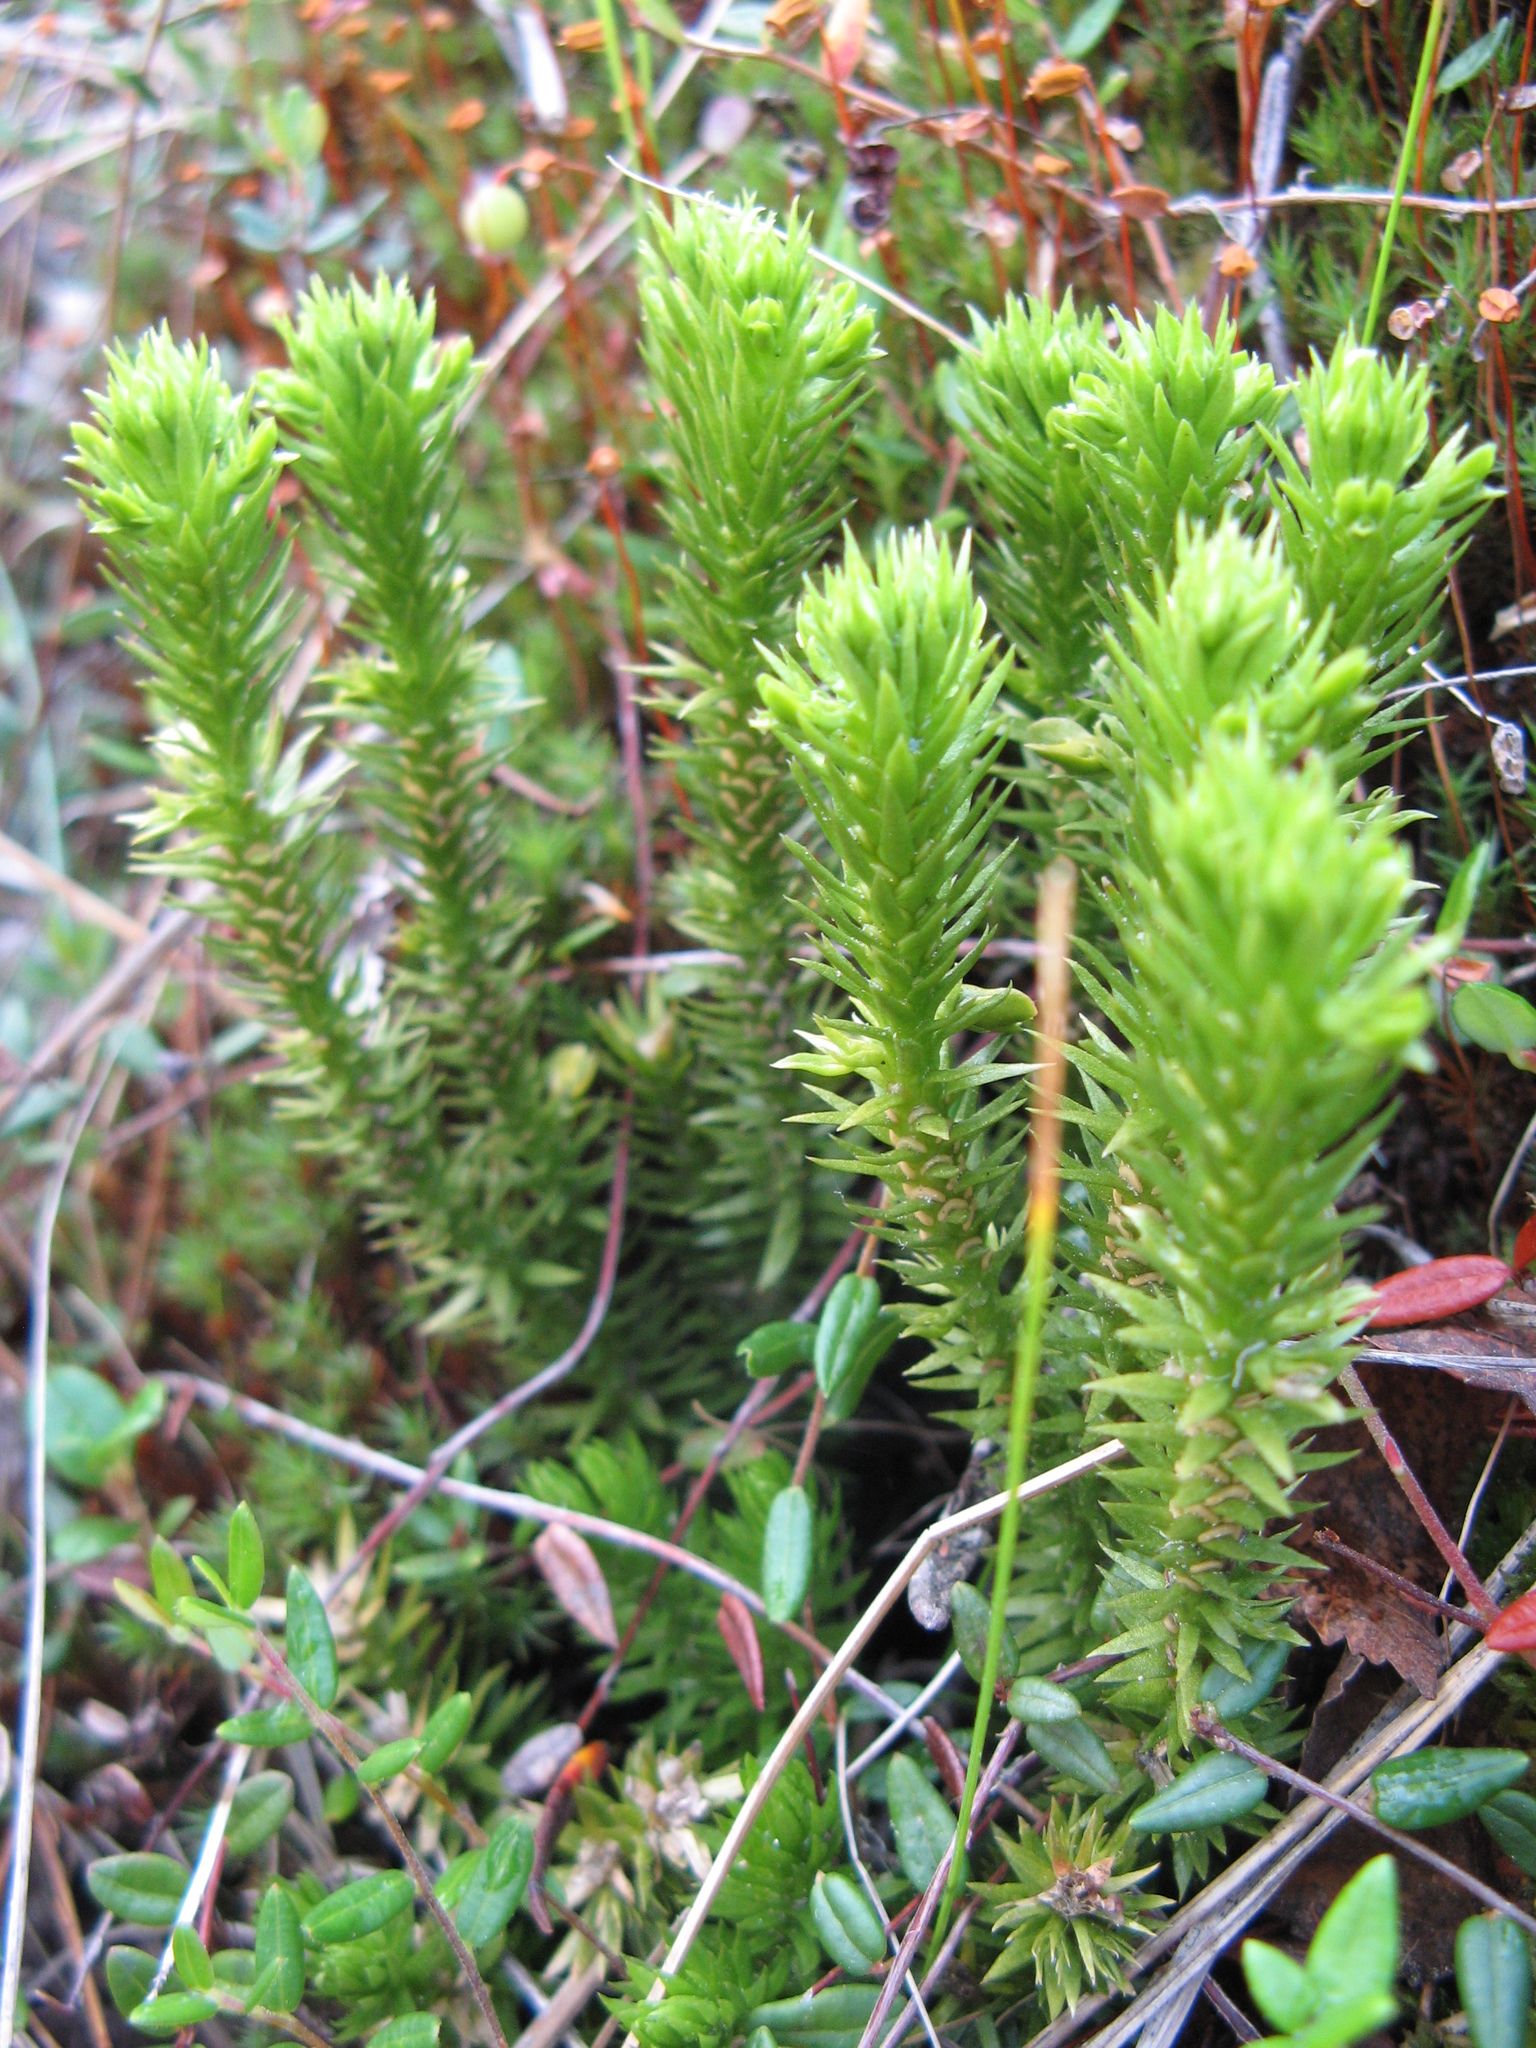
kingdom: Plantae
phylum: Tracheophyta
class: Lycopodiopsida
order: Lycopodiales
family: Lycopodiaceae
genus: Huperzia
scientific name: Huperzia selago
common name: Northern firmoss
